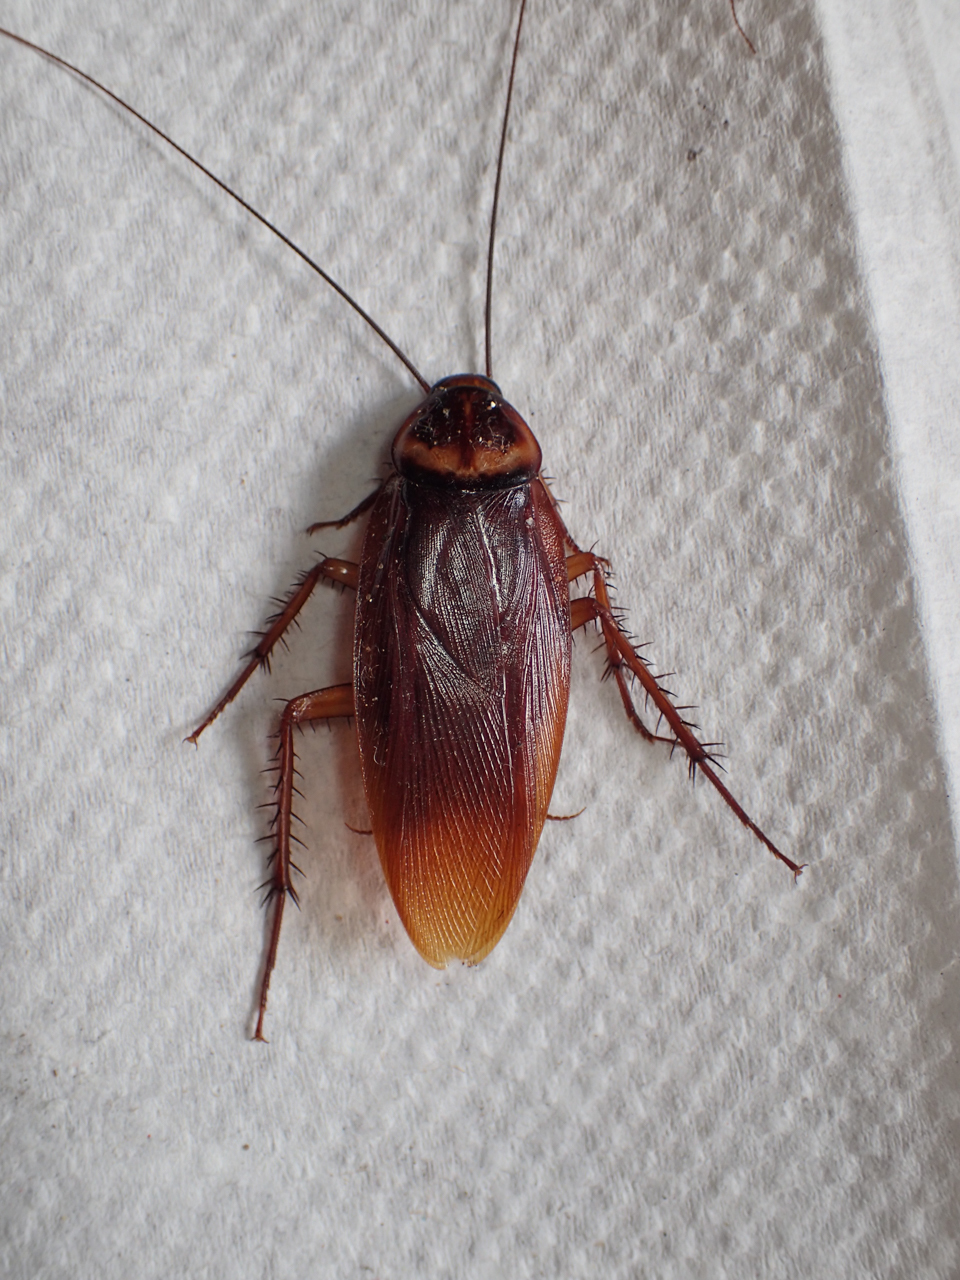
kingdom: Animalia
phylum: Arthropoda
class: Insecta
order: Blattodea
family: Blattidae
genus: Periplaneta
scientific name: Periplaneta americana
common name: American cockroach
